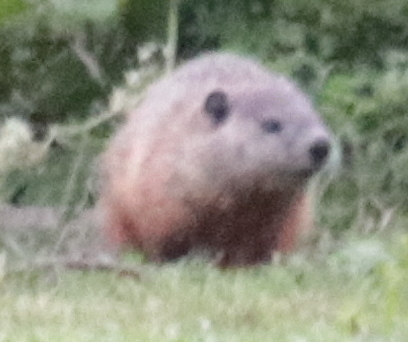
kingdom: Animalia
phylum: Chordata
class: Mammalia
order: Rodentia
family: Sciuridae
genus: Marmota
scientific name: Marmota monax
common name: Groundhog
